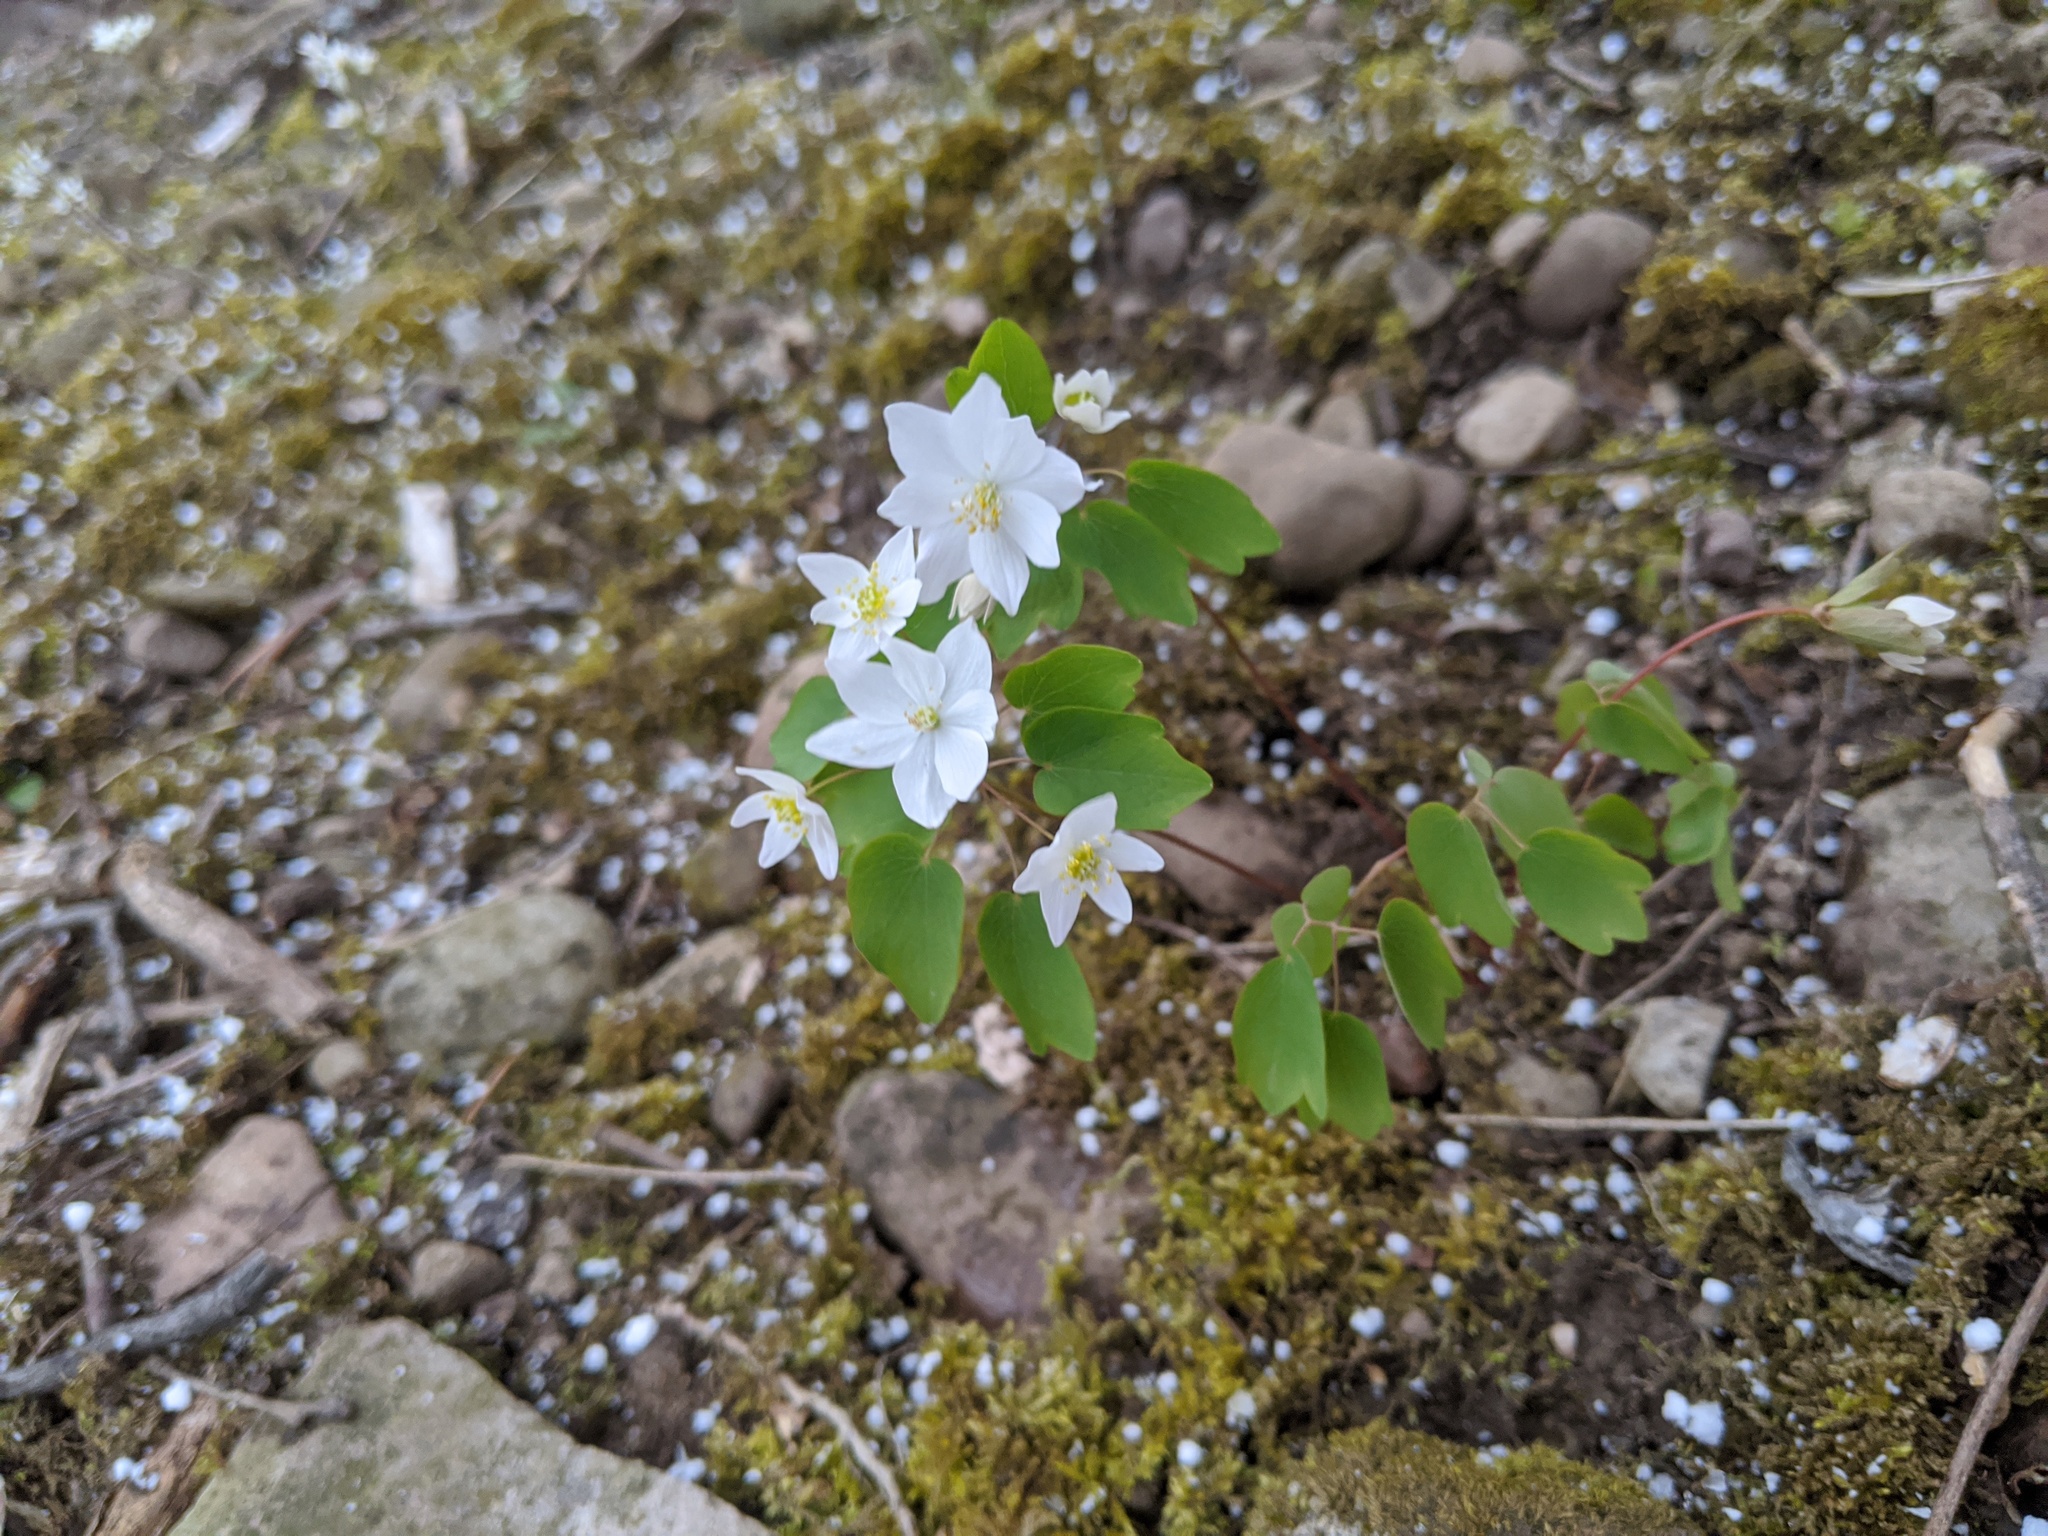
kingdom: Plantae
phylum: Tracheophyta
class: Magnoliopsida
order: Ranunculales
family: Ranunculaceae
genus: Thalictrum
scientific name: Thalictrum thalictroides
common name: Rue-anemone
